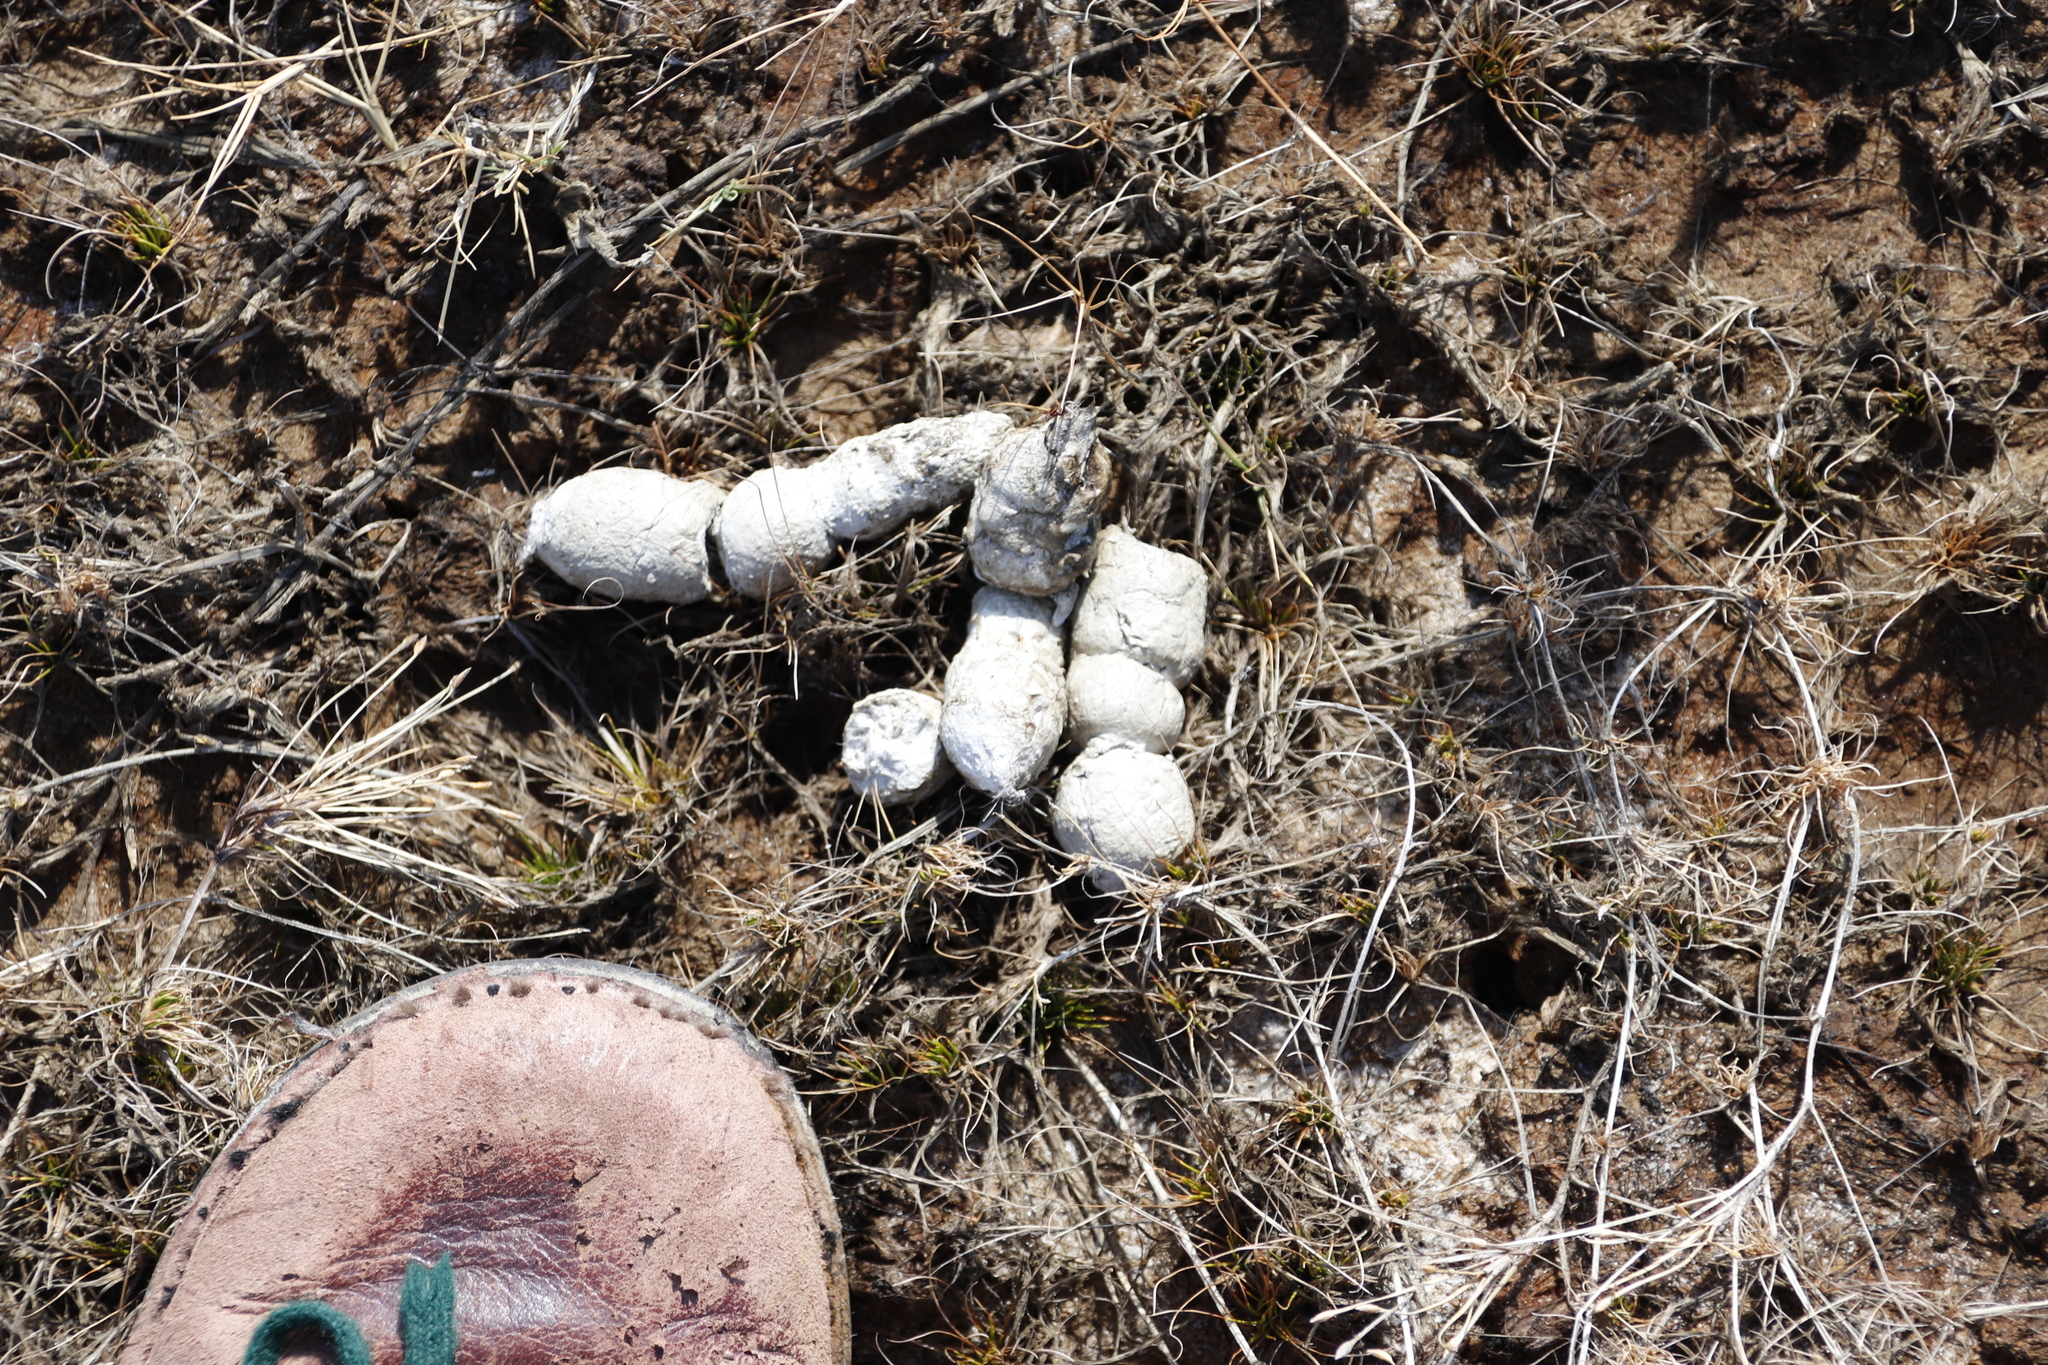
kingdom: Animalia
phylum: Chordata
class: Mammalia
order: Carnivora
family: Felidae
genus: Caracal
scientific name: Caracal caracal
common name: Caracal
